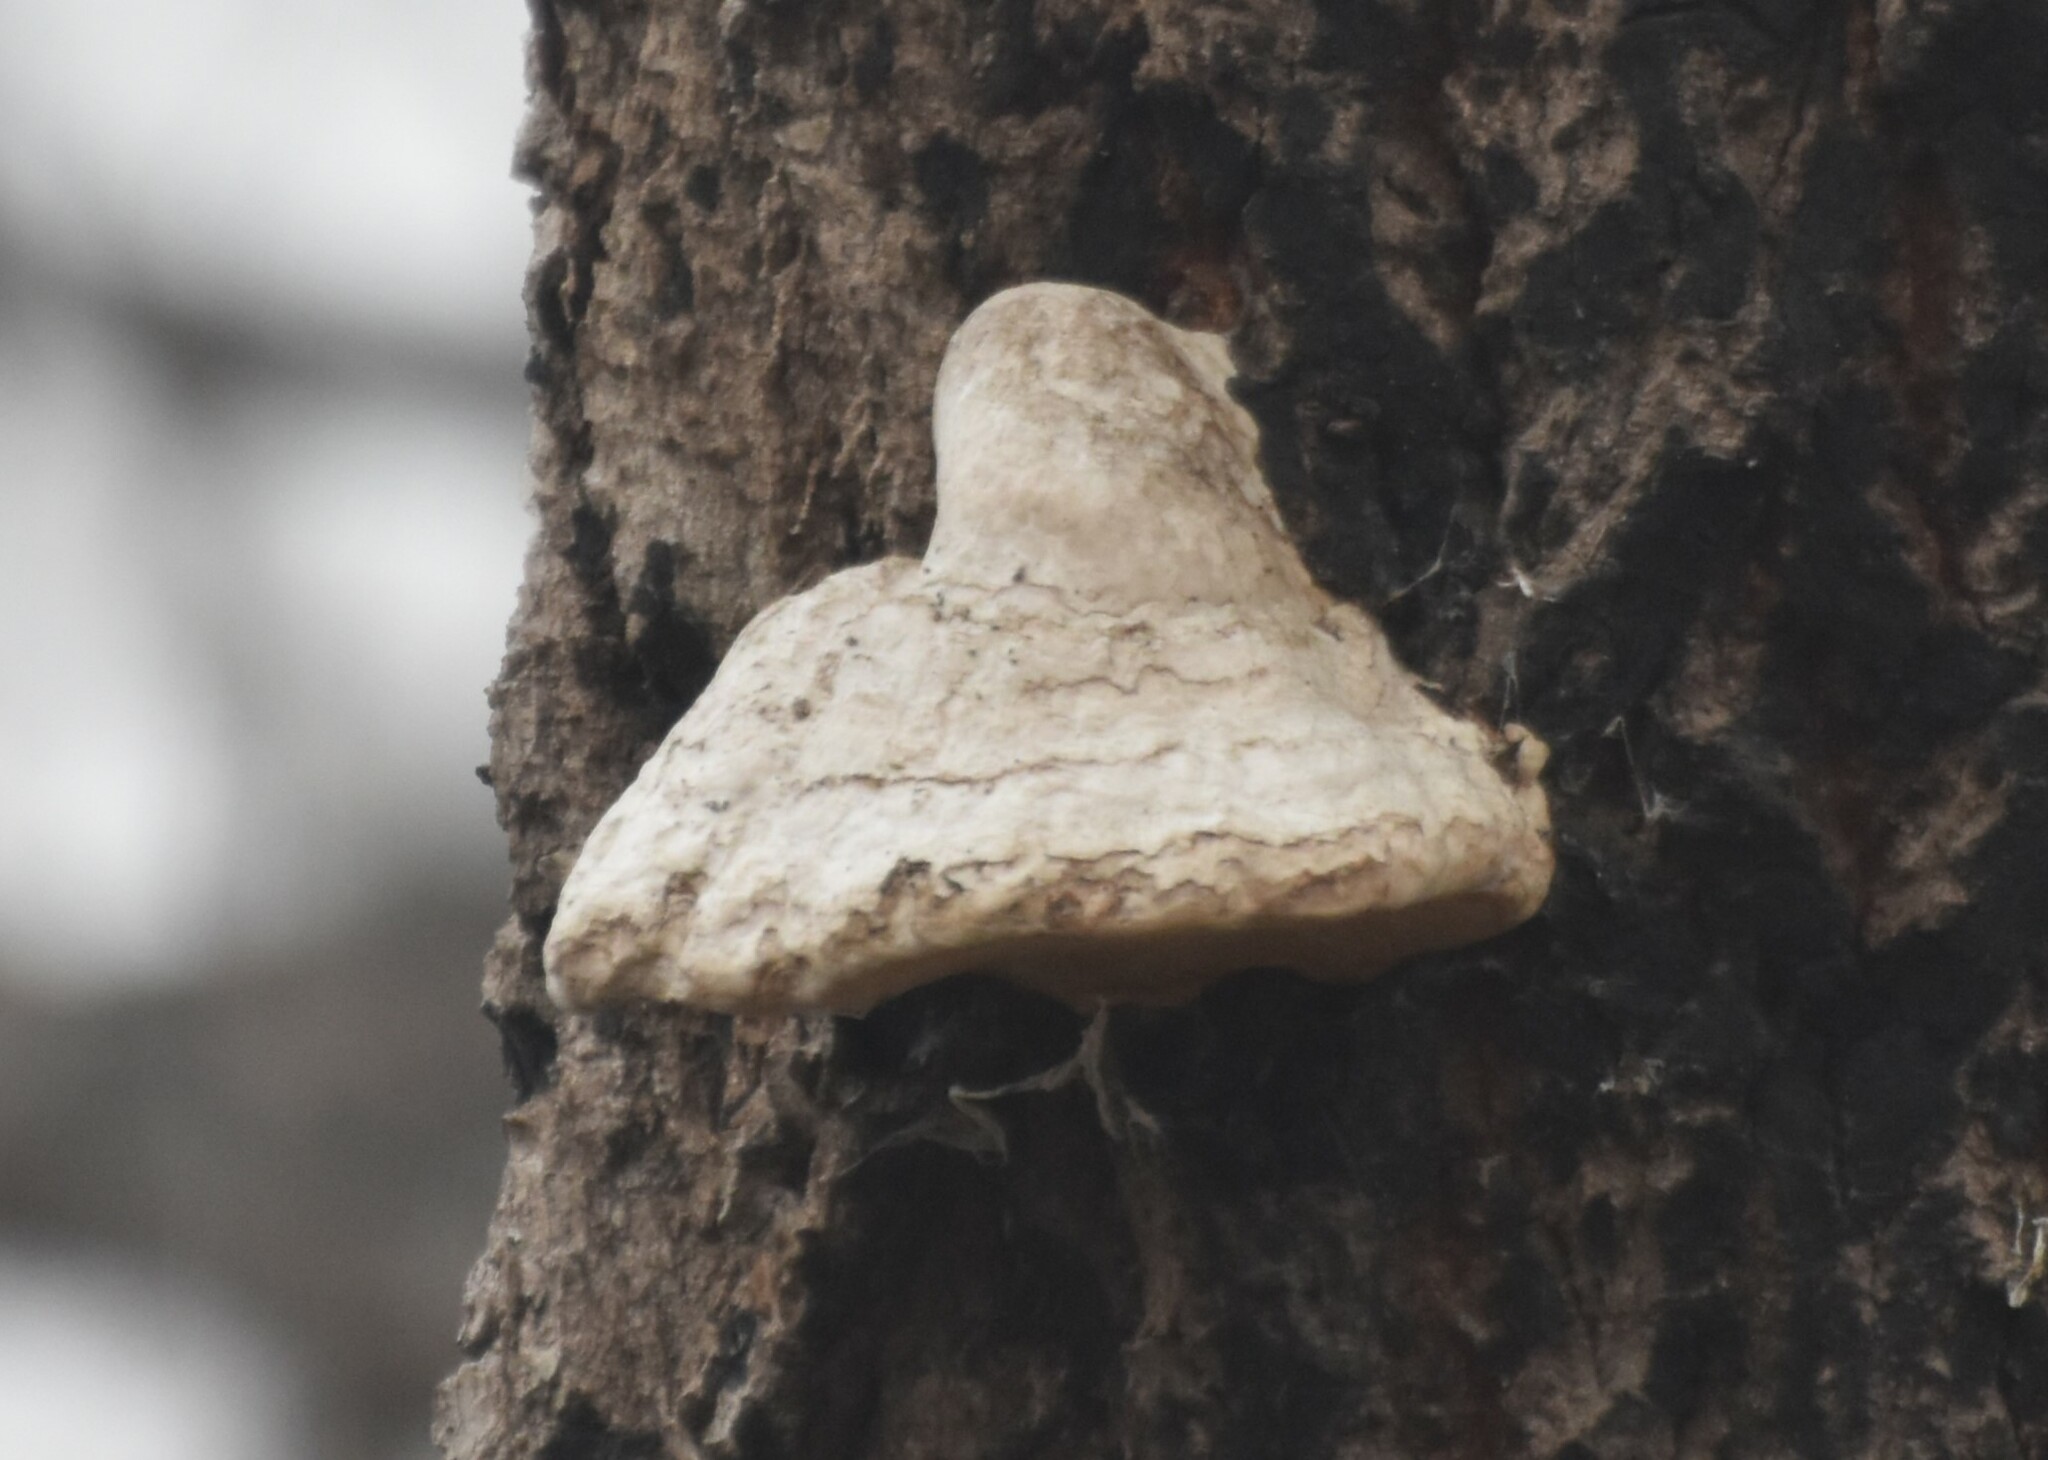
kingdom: Fungi
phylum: Basidiomycota
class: Agaricomycetes
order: Polyporales
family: Polyporaceae
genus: Fomes
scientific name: Fomes fomentarius
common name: Hoof fungus
